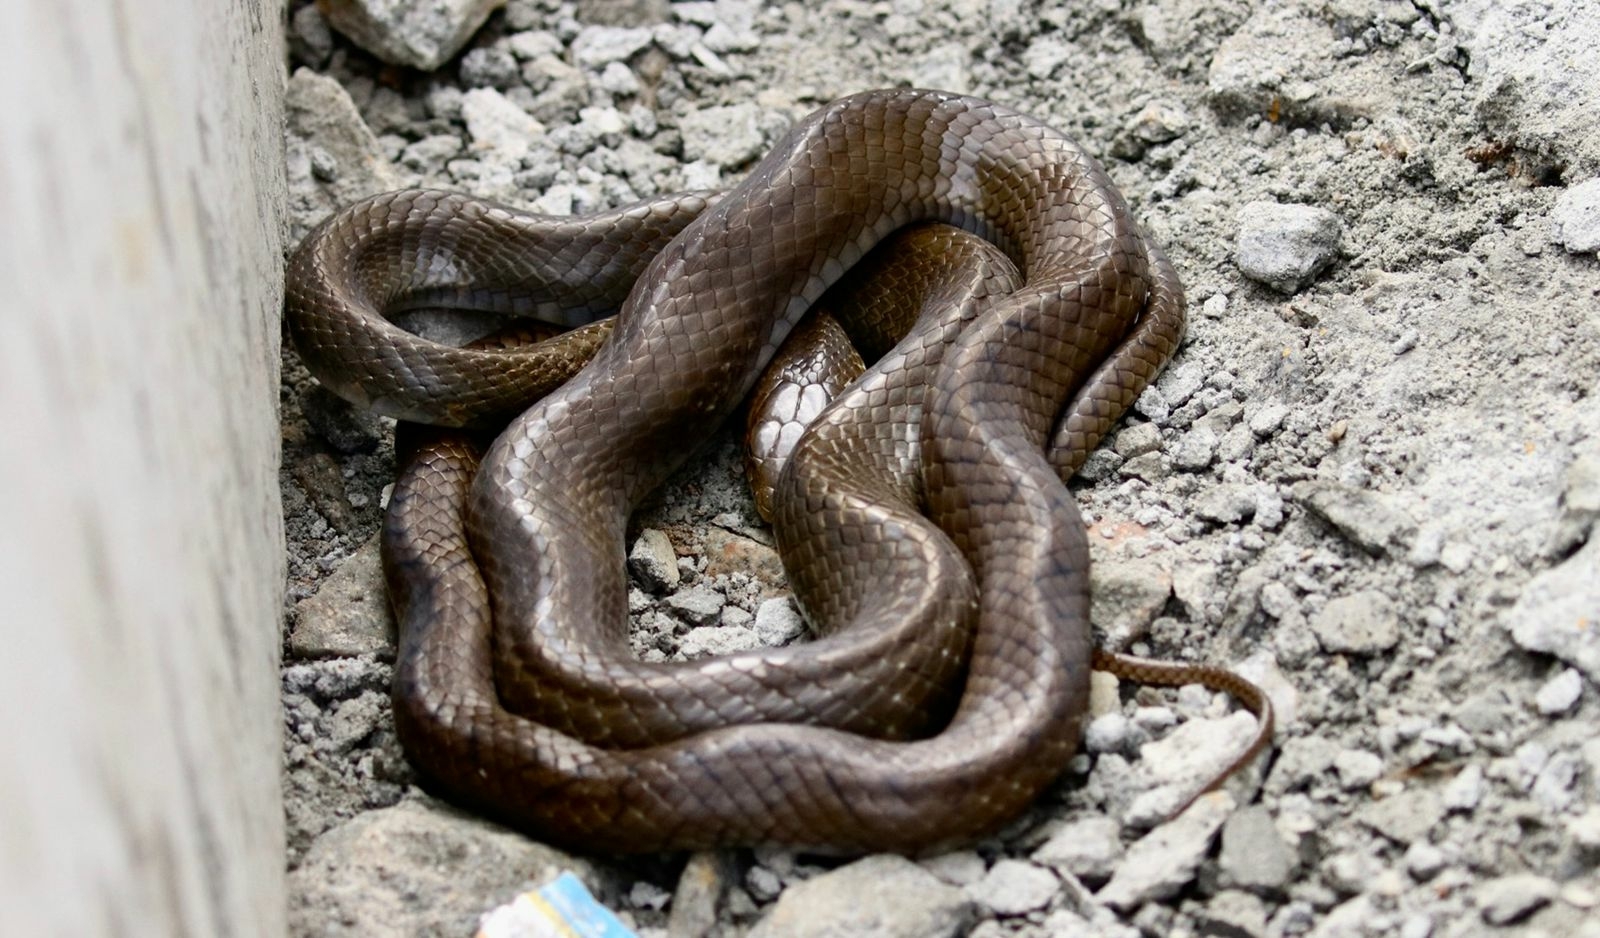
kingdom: Animalia
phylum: Chordata
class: Squamata
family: Colubridae
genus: Ptyas
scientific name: Ptyas mucosa
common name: Oriental ratsnake
